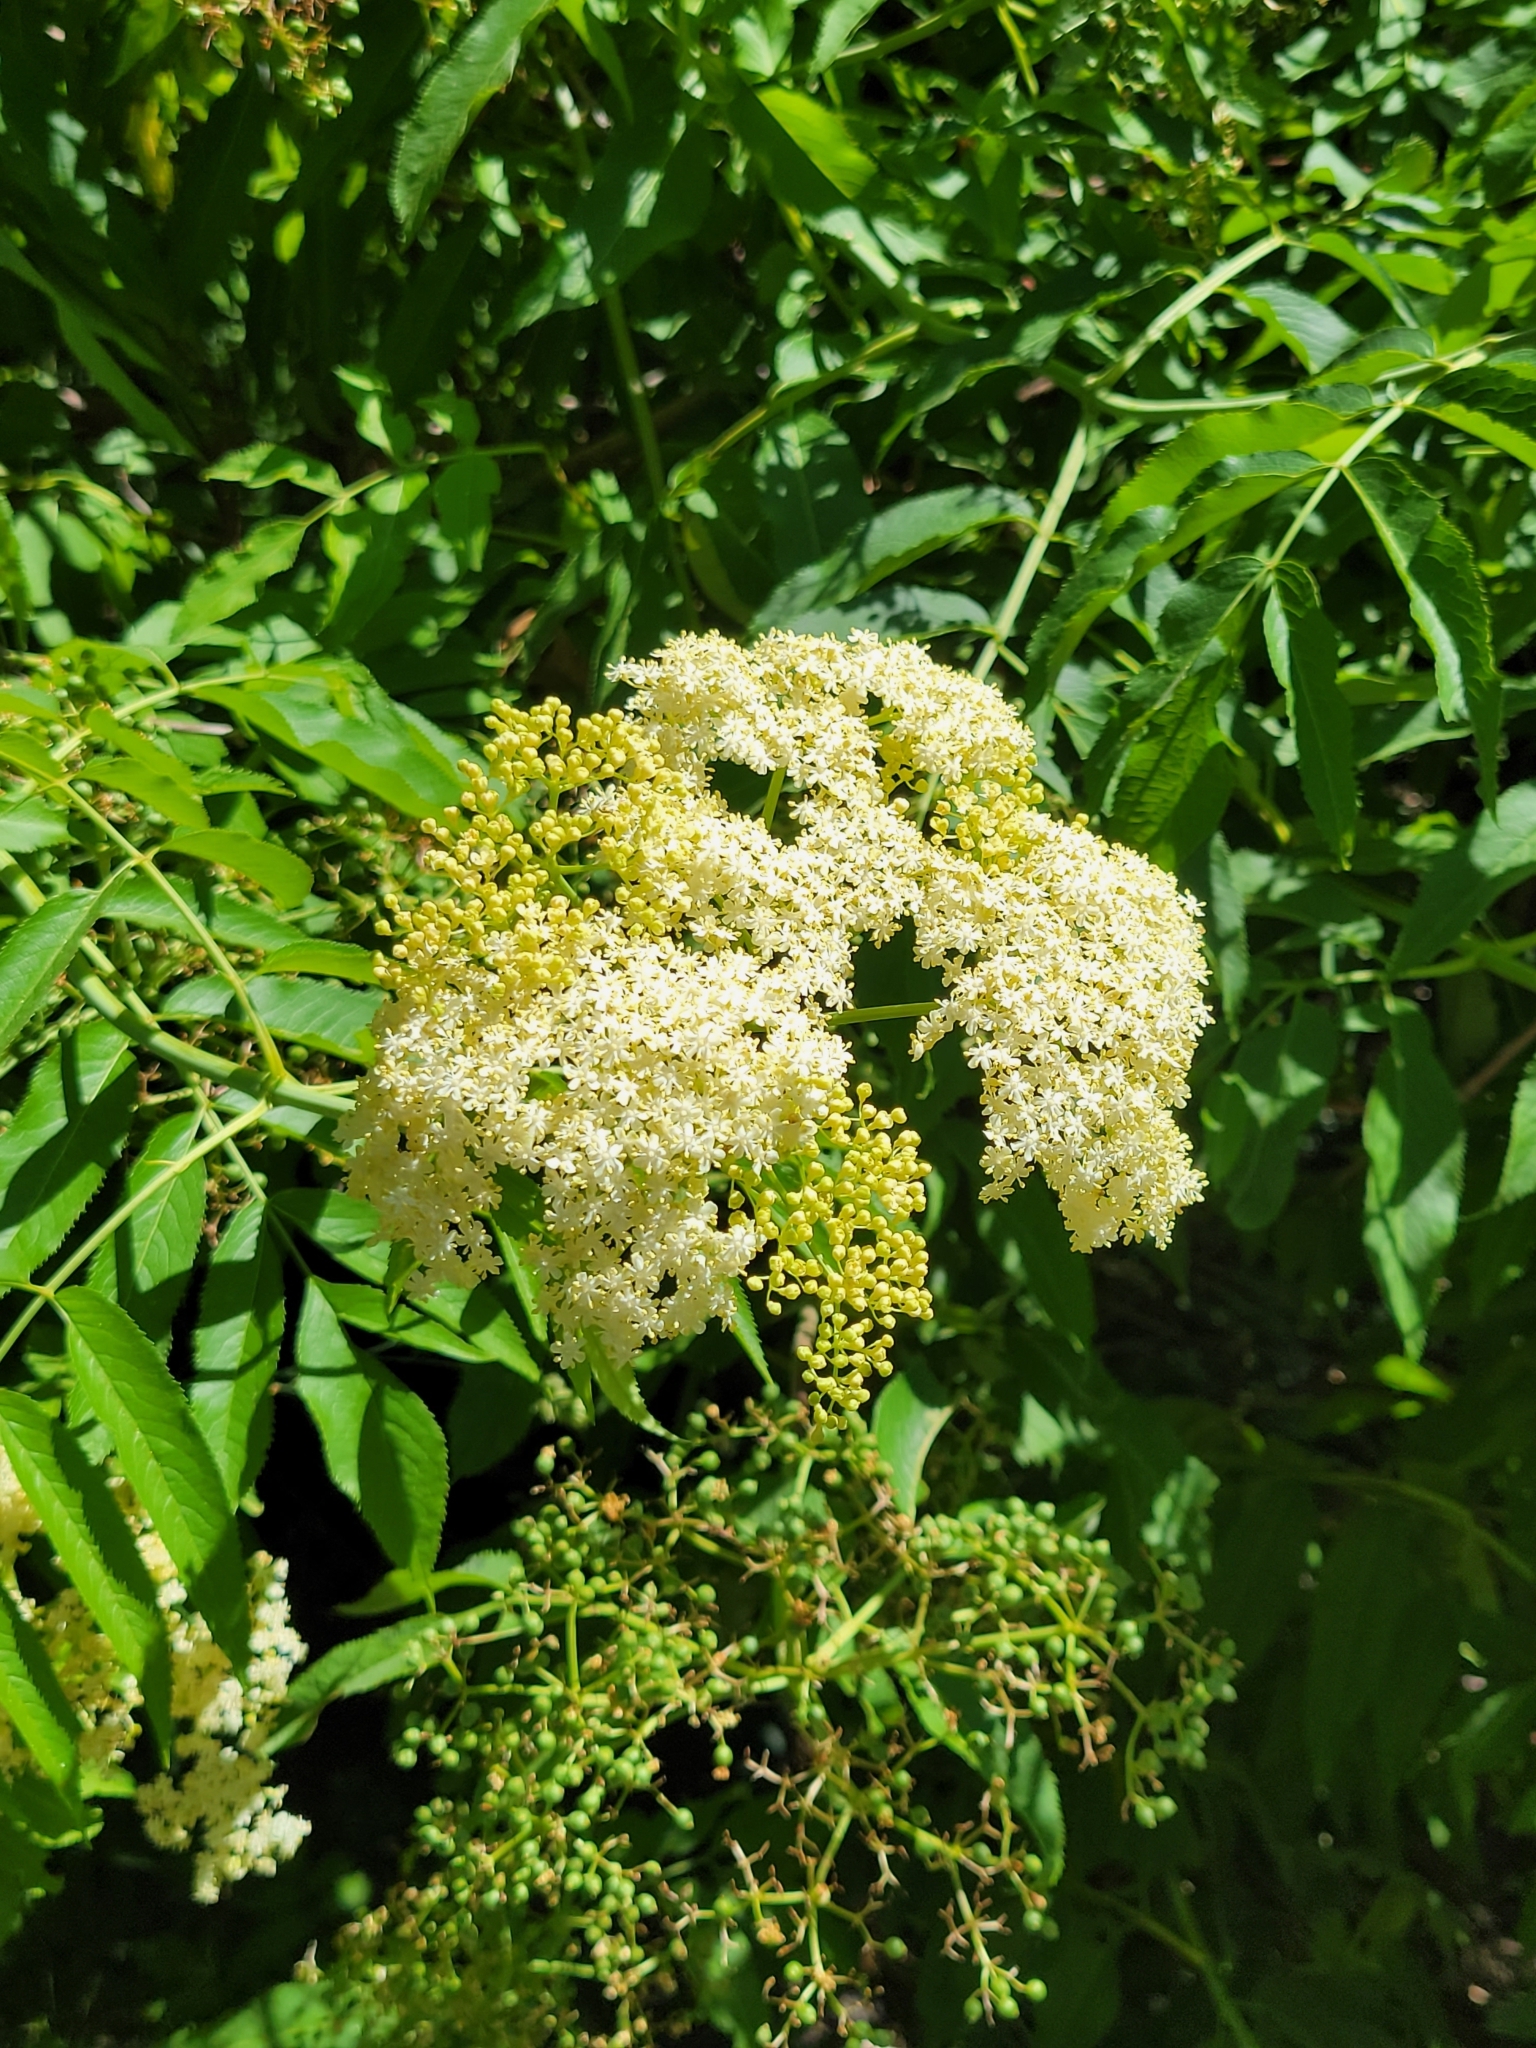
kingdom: Plantae
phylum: Tracheophyta
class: Magnoliopsida
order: Dipsacales
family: Viburnaceae
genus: Sambucus
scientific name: Sambucus cerulea
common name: Blue elder
